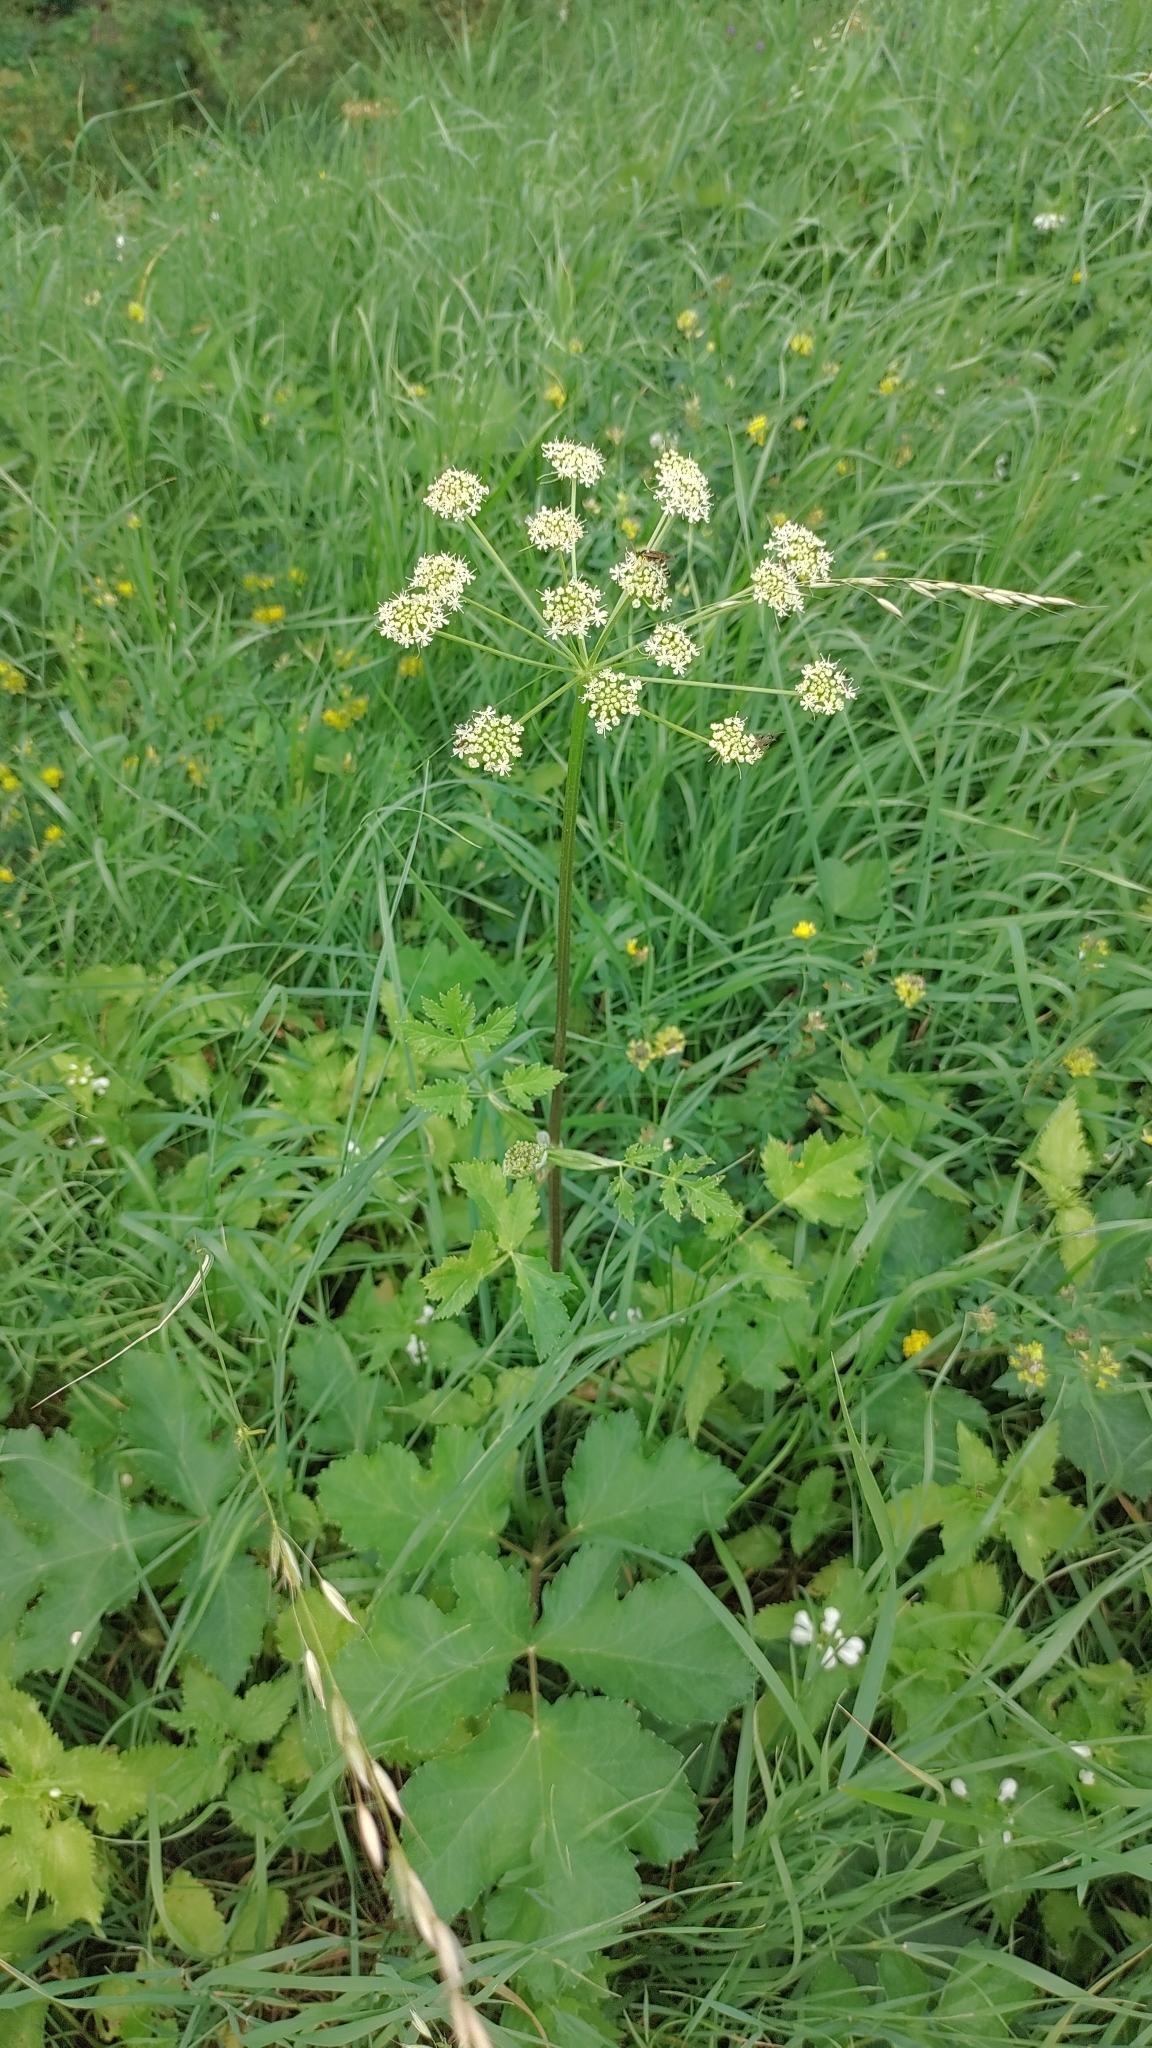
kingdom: Plantae
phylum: Tracheophyta
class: Magnoliopsida
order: Apiales
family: Apiaceae
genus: Heracleum
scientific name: Heracleum sphondylium
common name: Hogweed
